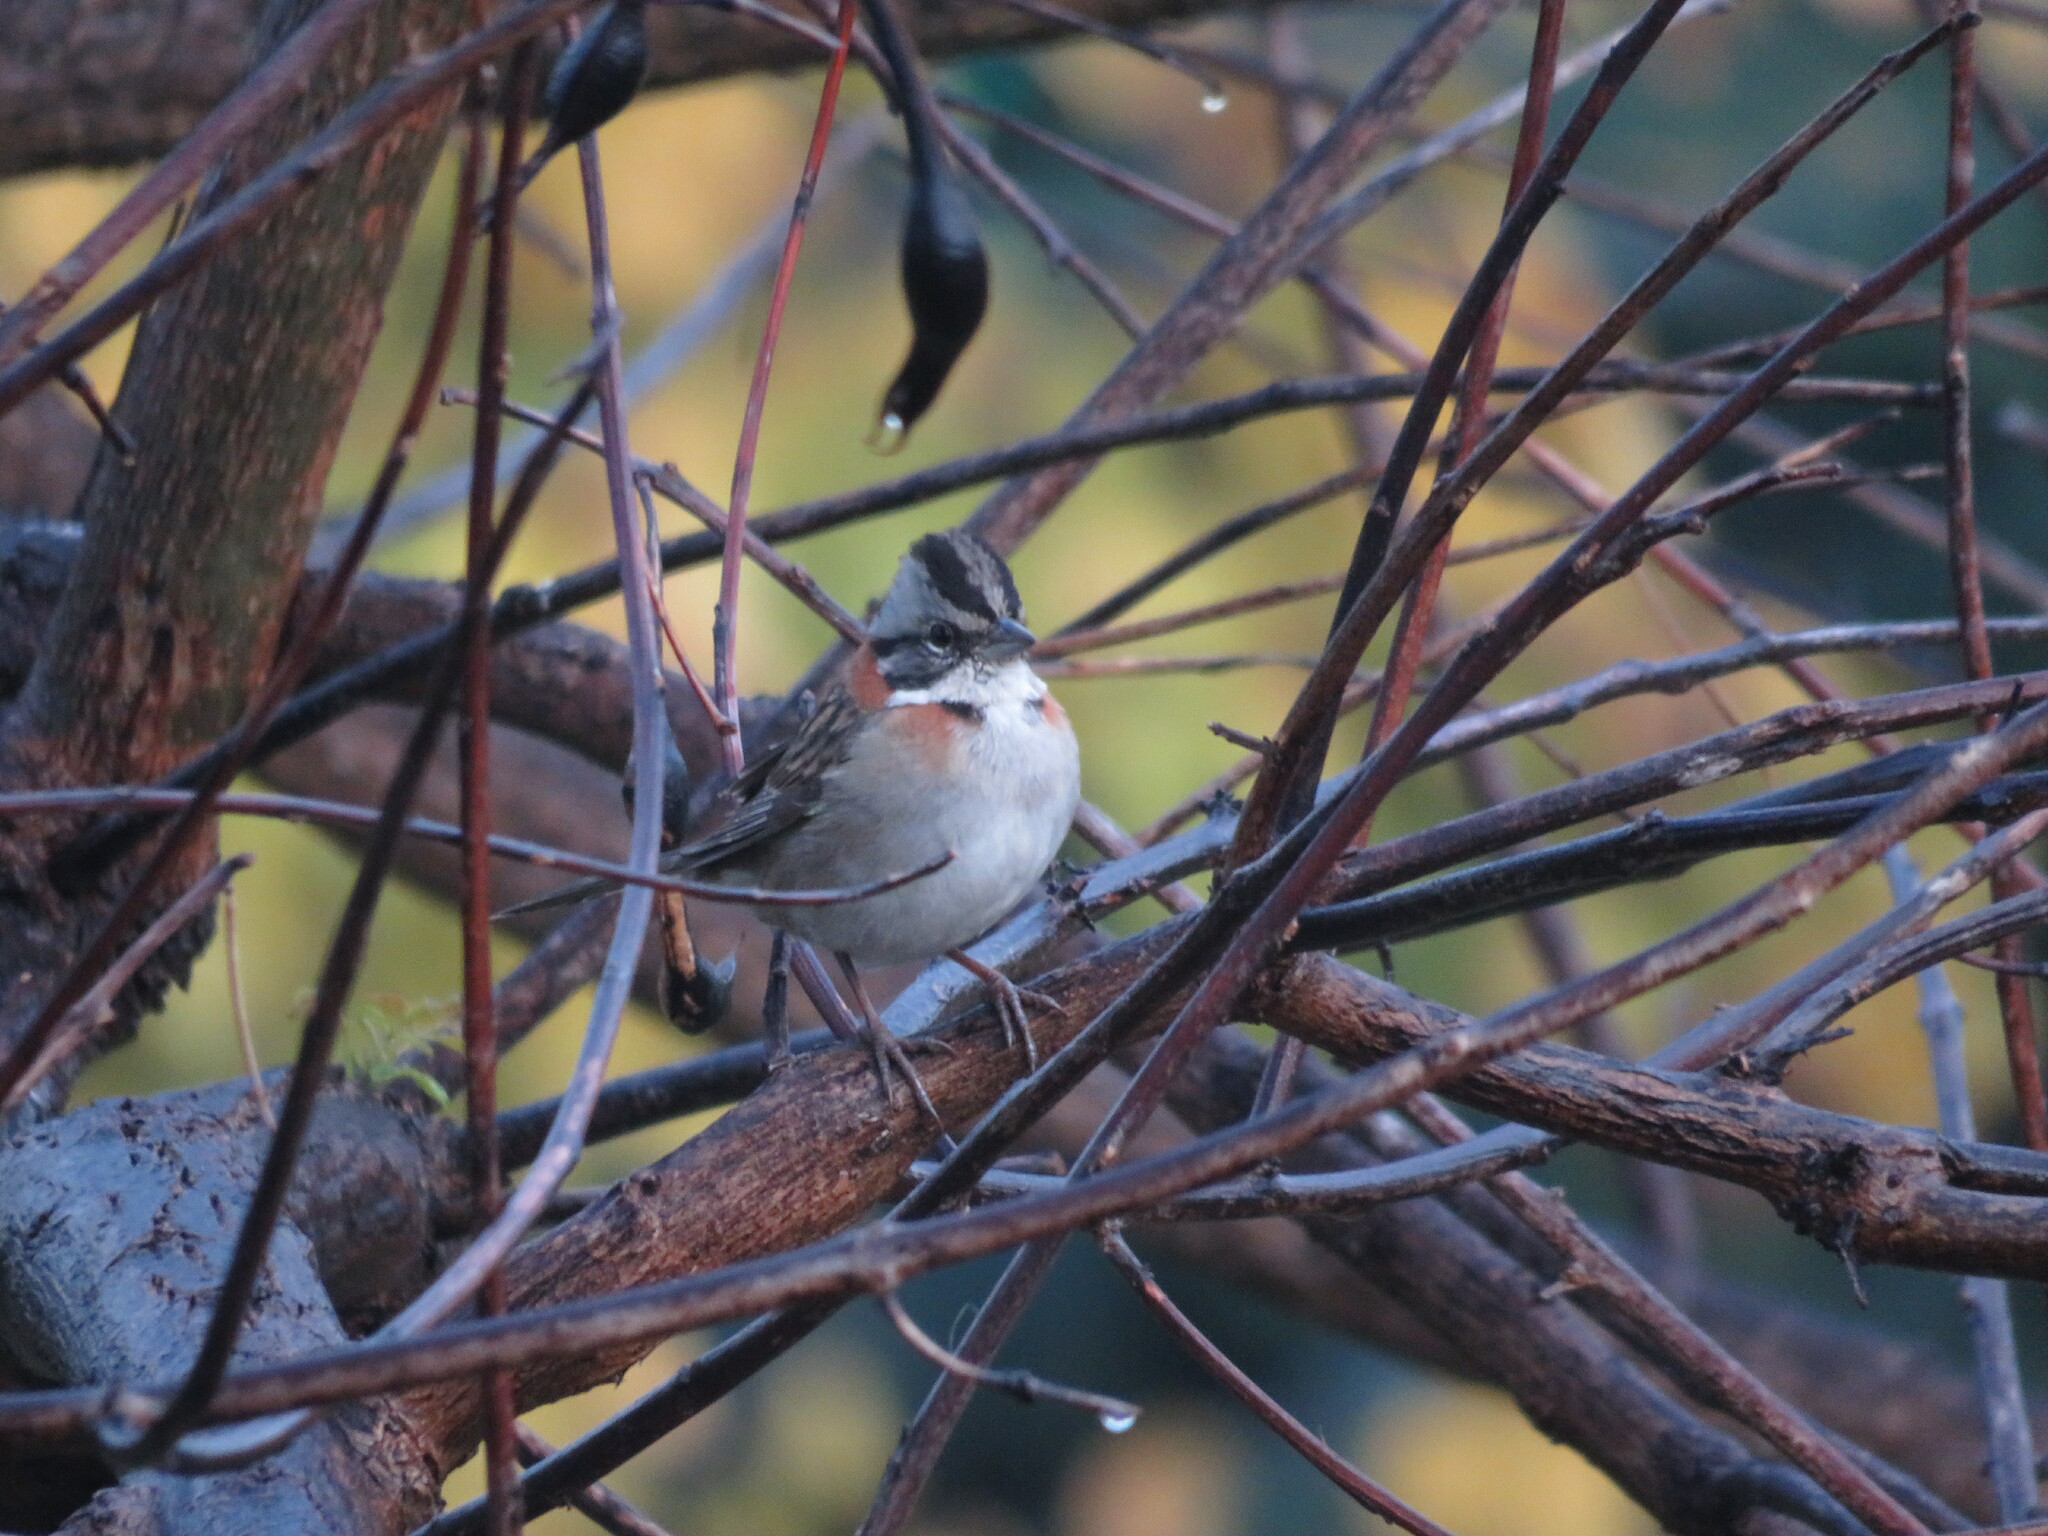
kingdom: Animalia
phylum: Chordata
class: Aves
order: Passeriformes
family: Passerellidae
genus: Zonotrichia
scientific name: Zonotrichia capensis
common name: Rufous-collared sparrow
